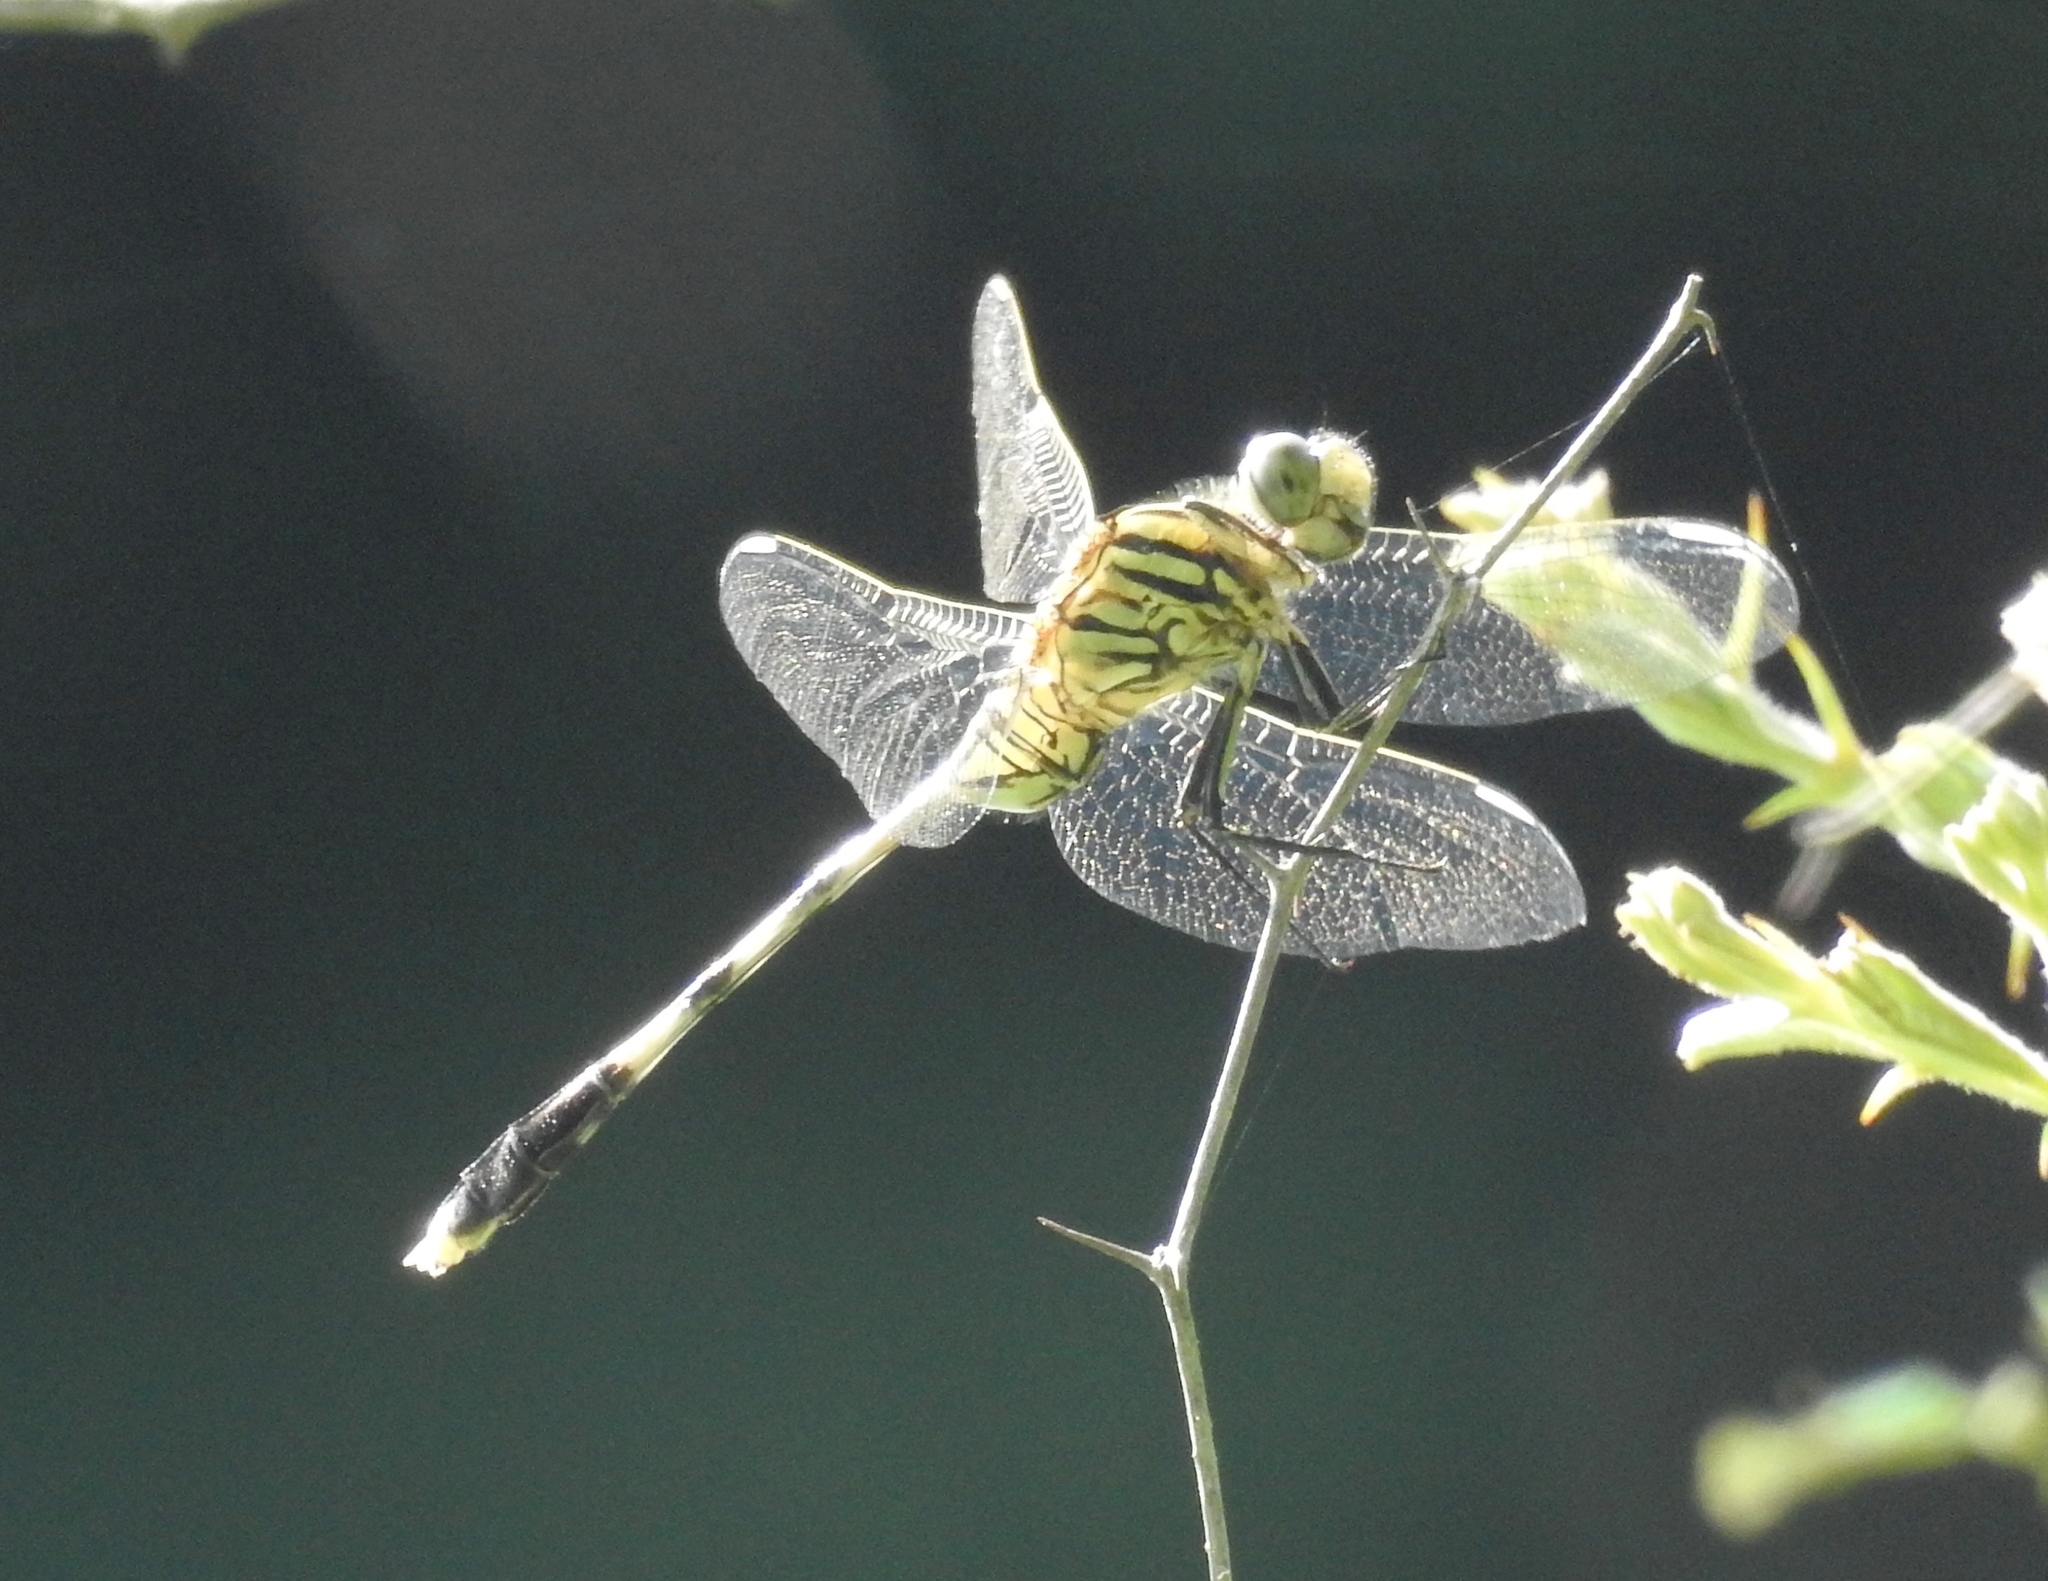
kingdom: Animalia
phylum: Arthropoda
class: Insecta
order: Odonata
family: Libellulidae
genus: Orthetrum
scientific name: Orthetrum sabina
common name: Slender skimmer
